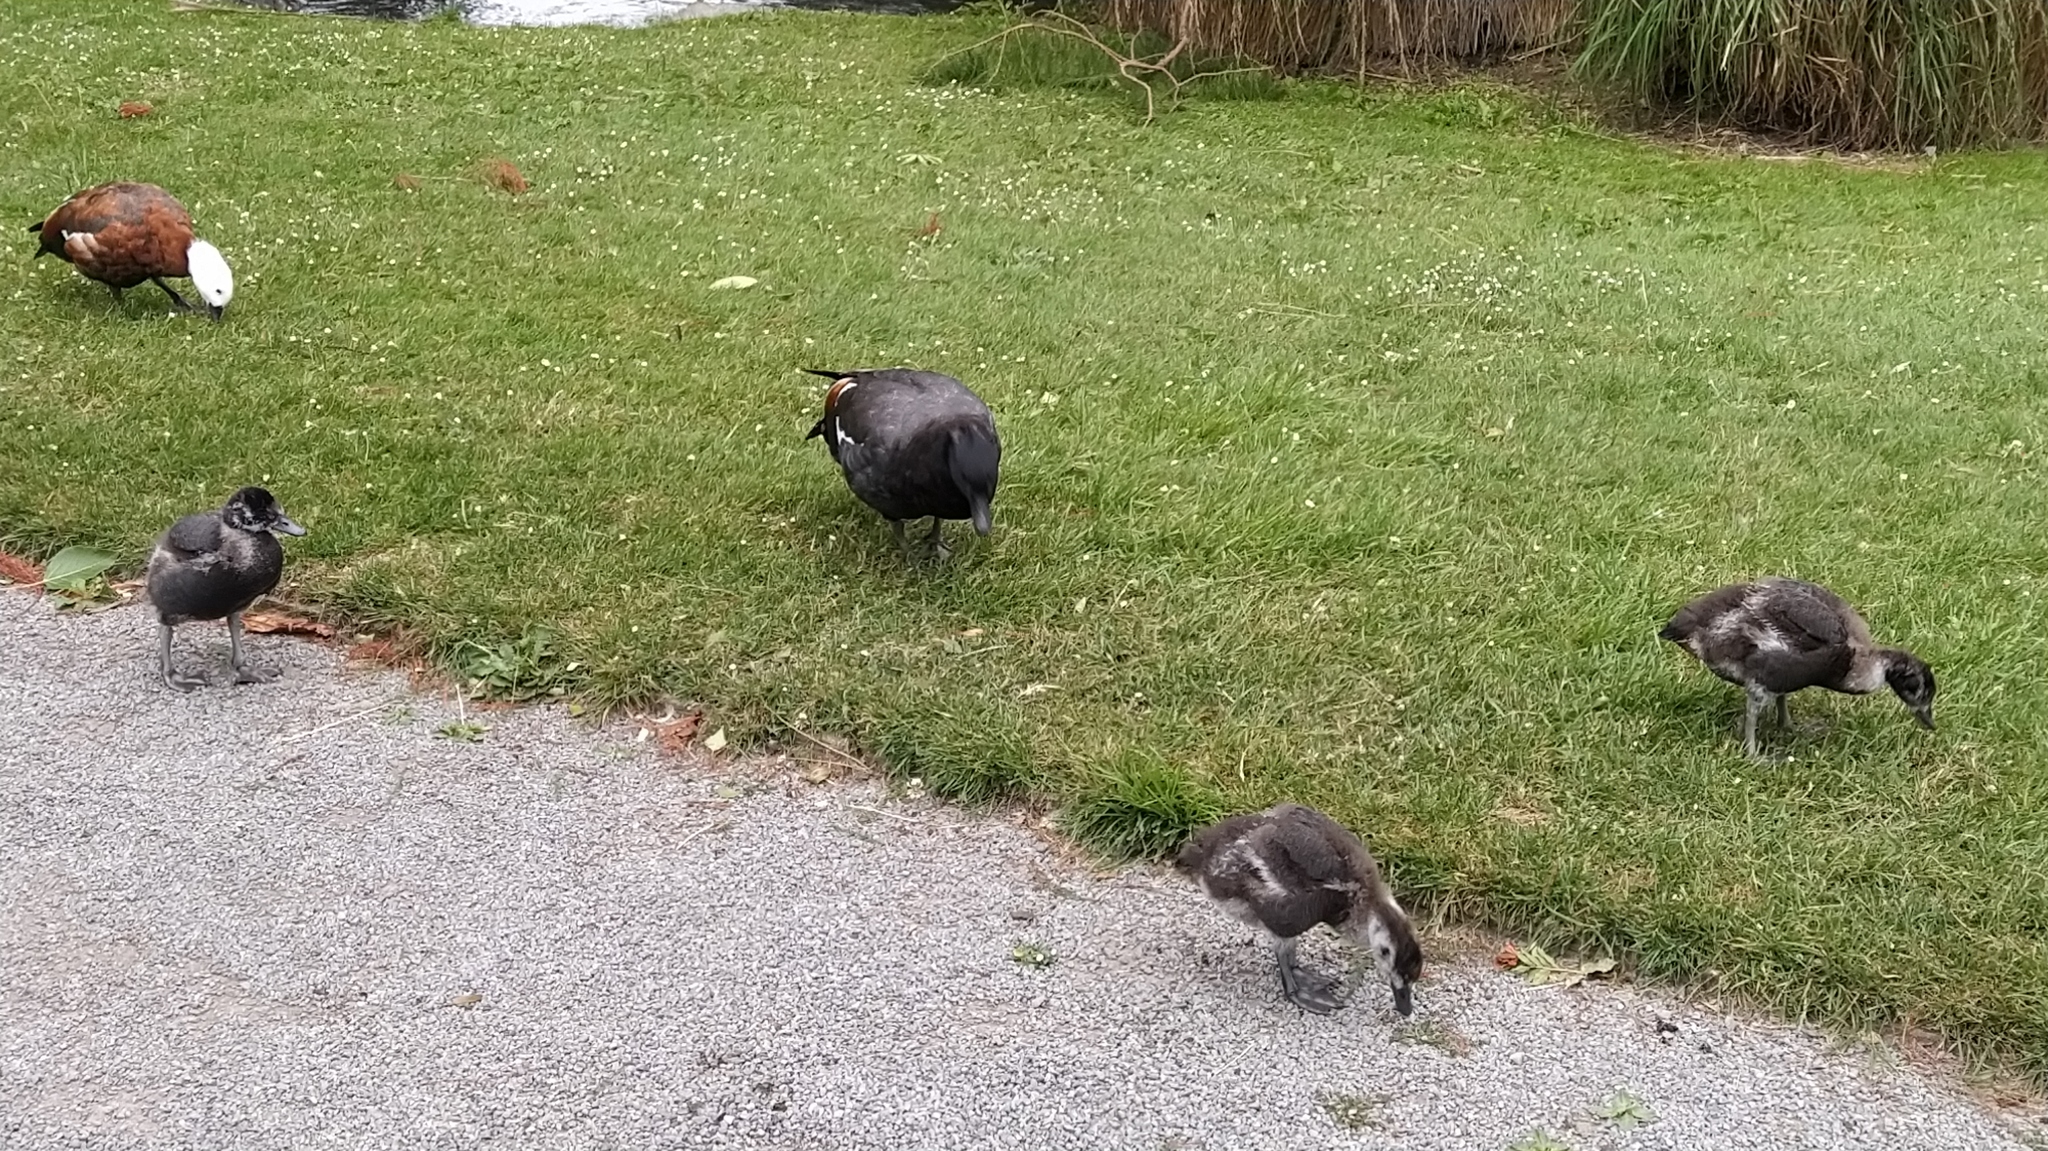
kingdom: Animalia
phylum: Chordata
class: Aves
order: Anseriformes
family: Anatidae
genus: Tadorna
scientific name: Tadorna variegata
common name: Paradise shelduck
